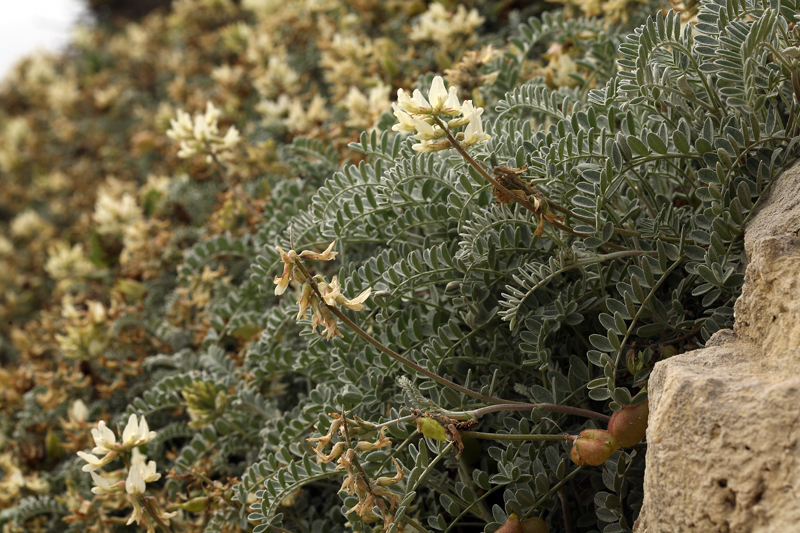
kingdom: Plantae
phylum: Tracheophyta
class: Magnoliopsida
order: Fabales
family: Fabaceae
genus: Astragalus
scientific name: Astragalus miguelensis
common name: San miguel milk-vetch
